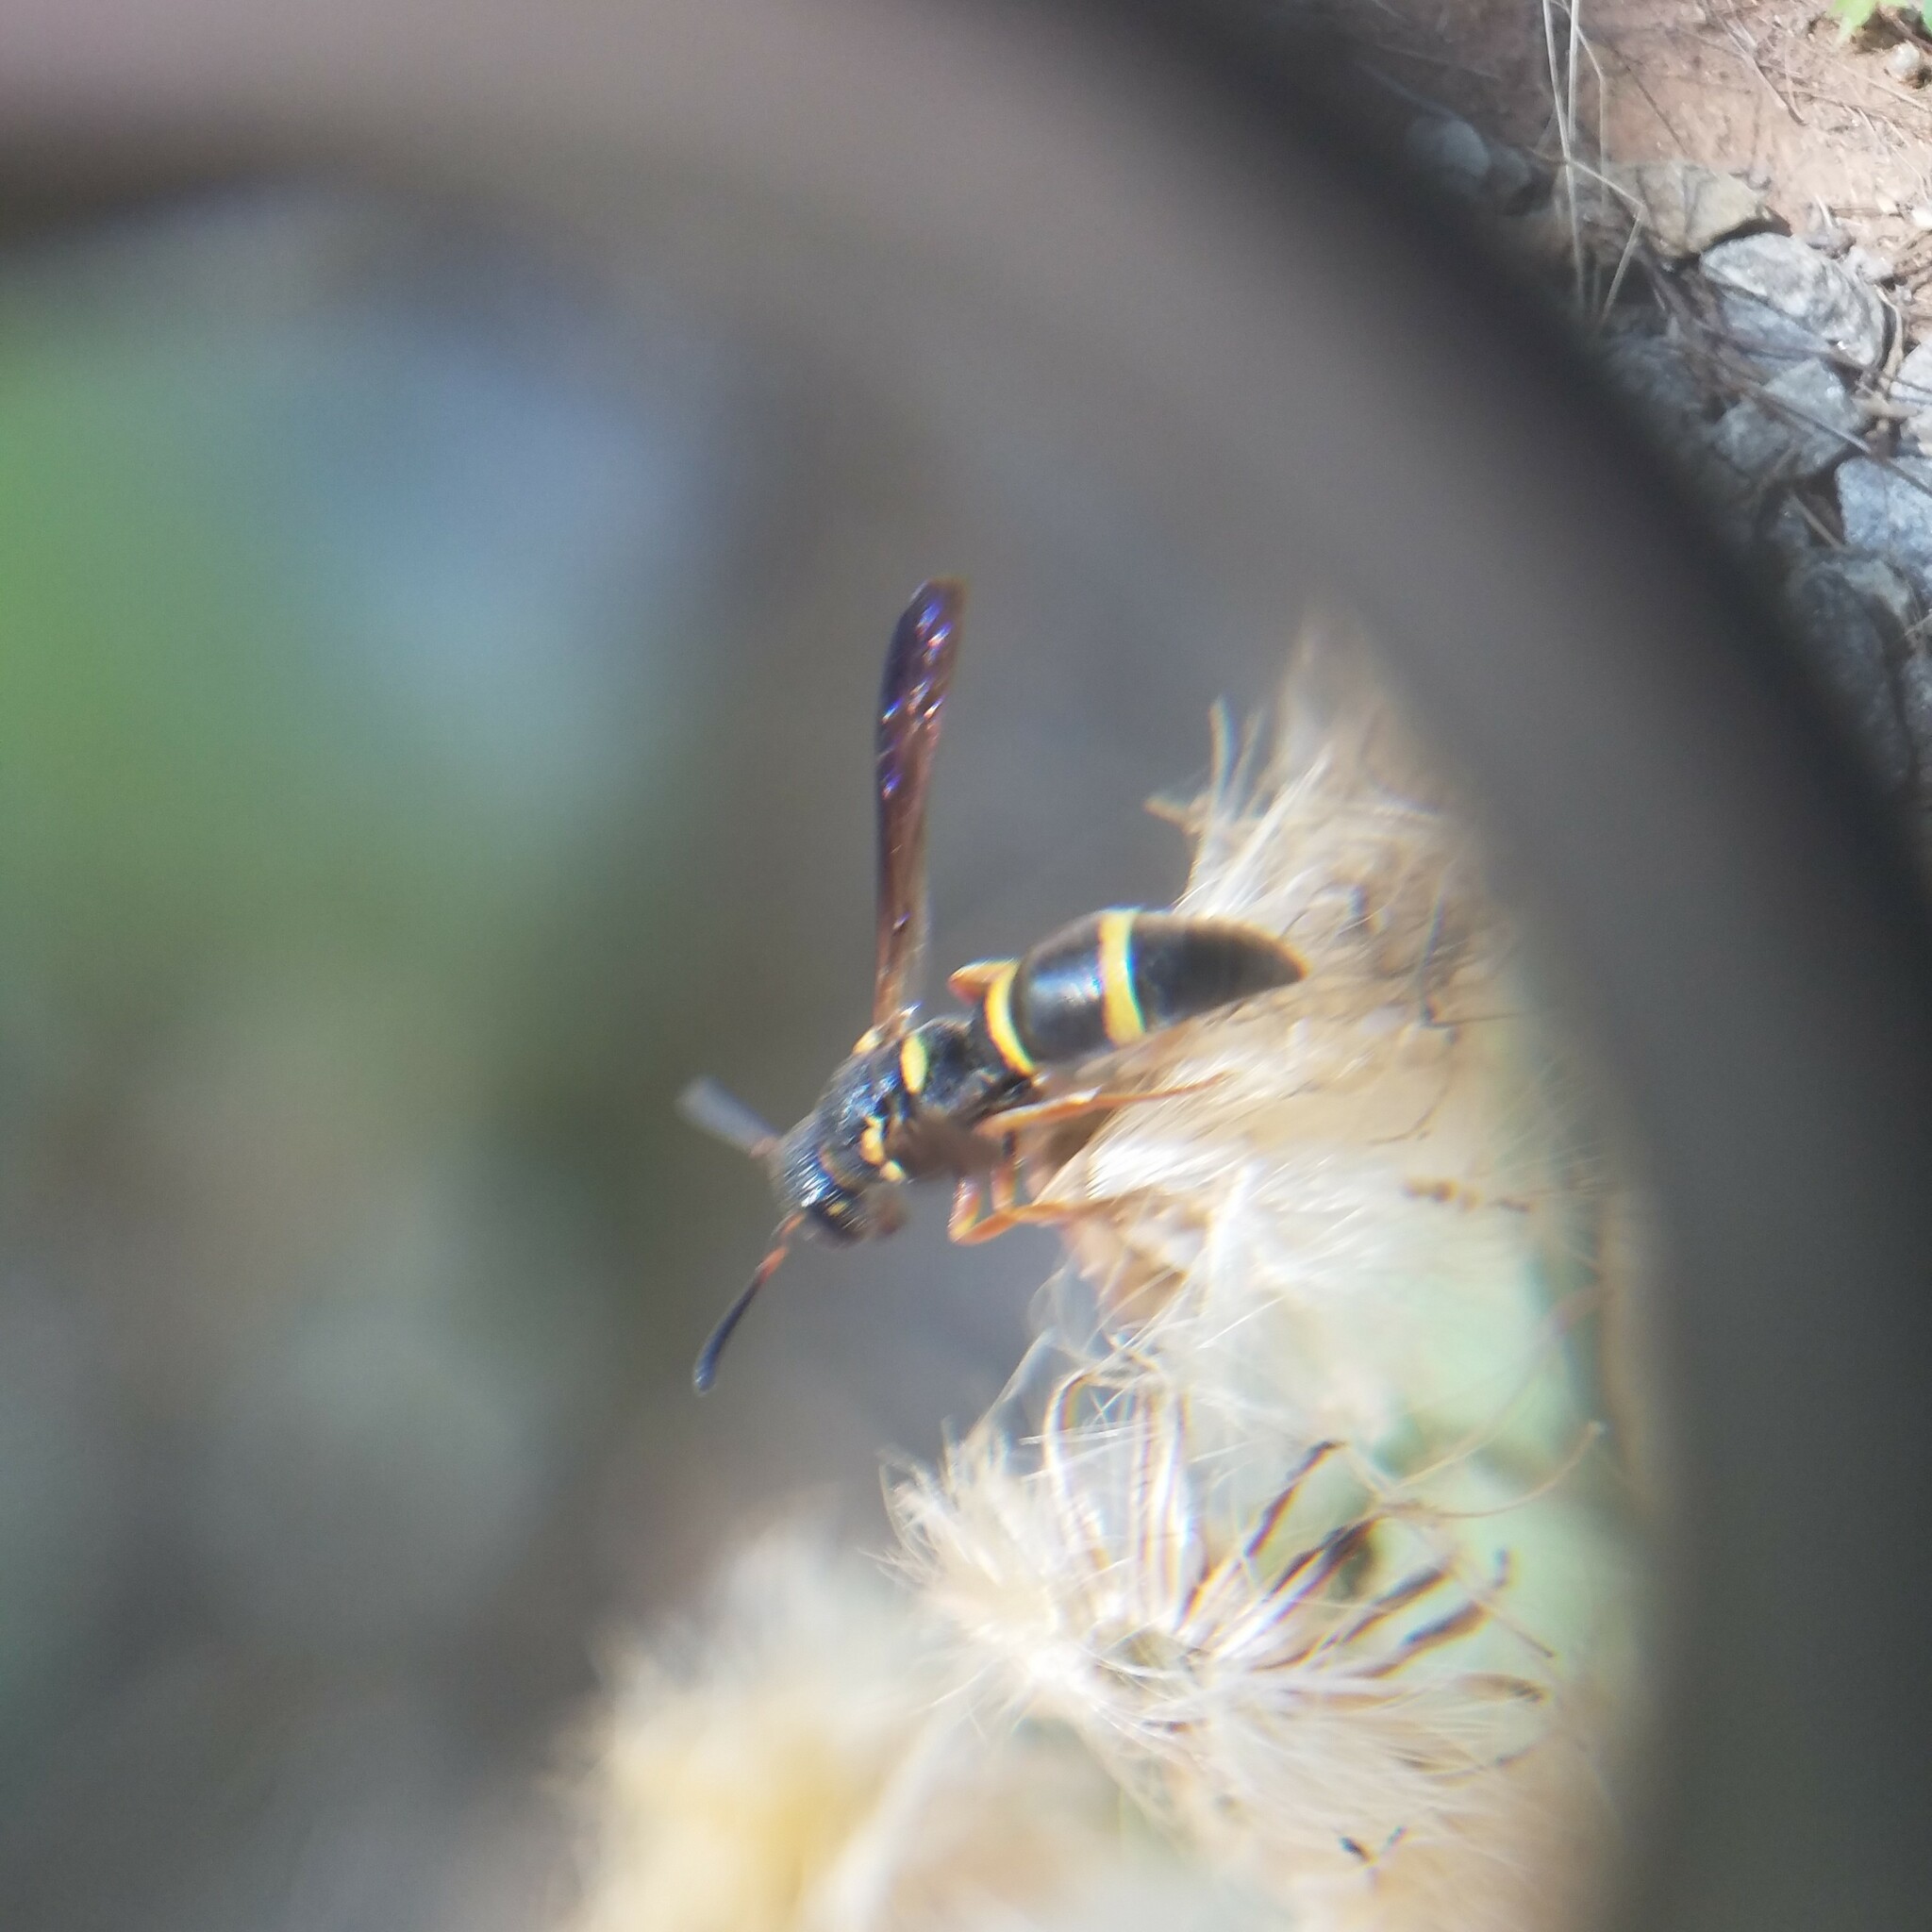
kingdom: Animalia
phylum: Arthropoda
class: Insecta
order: Hymenoptera
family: Eumenidae
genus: Parancistrocerus
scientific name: Parancistrocerus perennis
